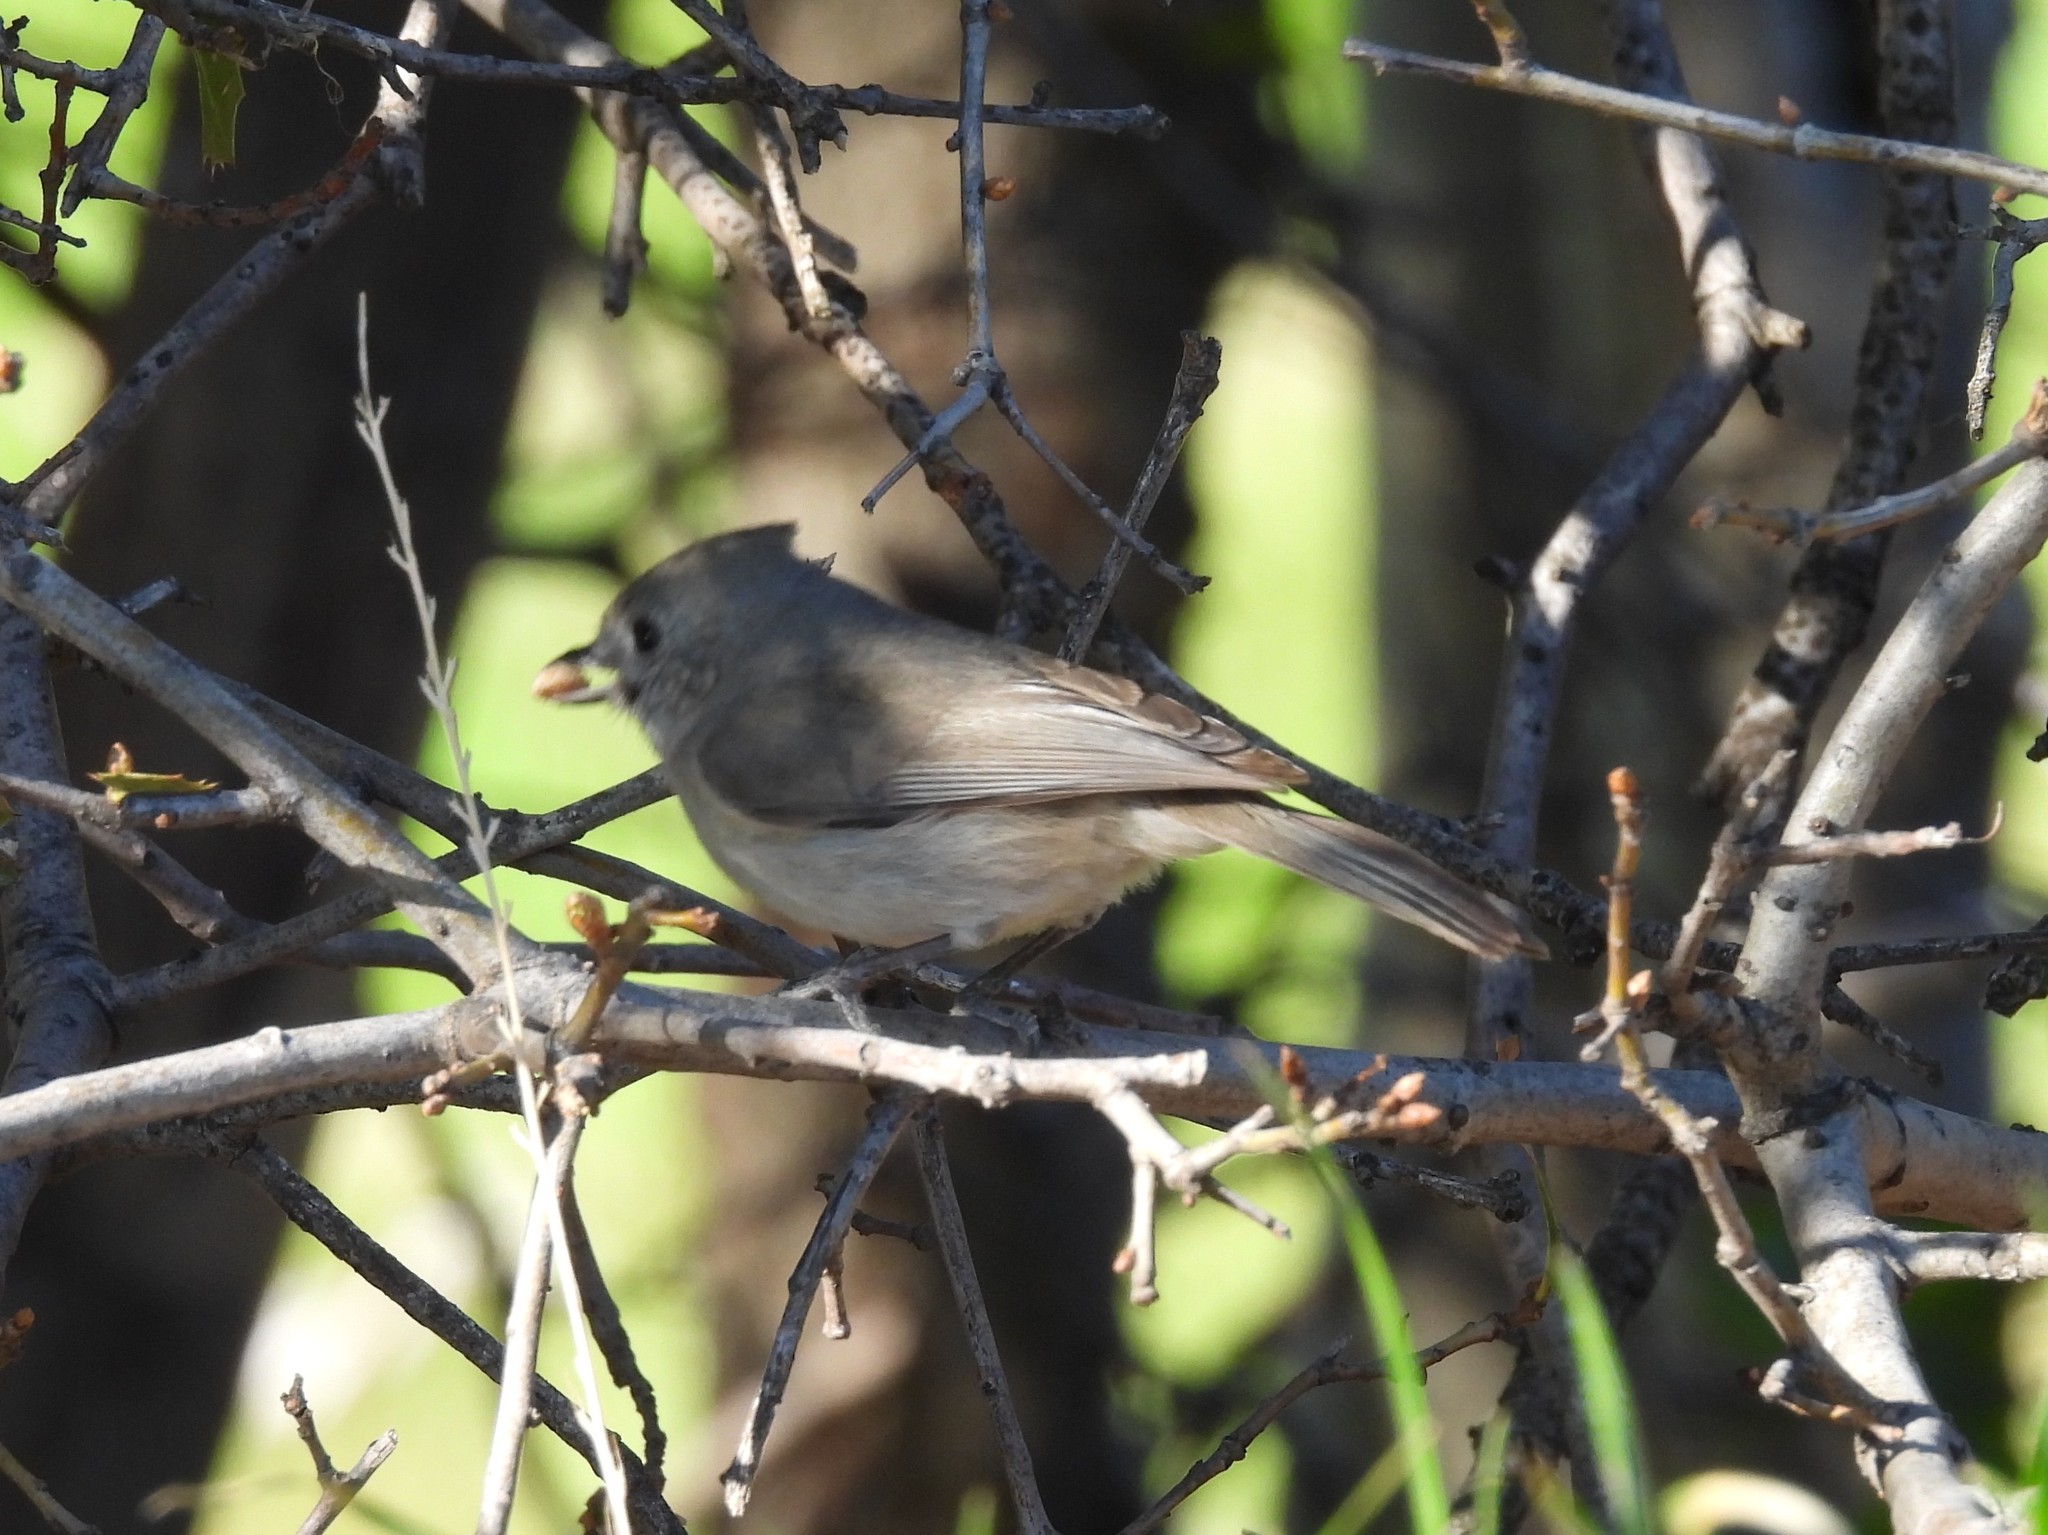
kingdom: Animalia
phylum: Chordata
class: Aves
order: Passeriformes
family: Paridae
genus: Baeolophus
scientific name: Baeolophus inornatus
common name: Oak titmouse
